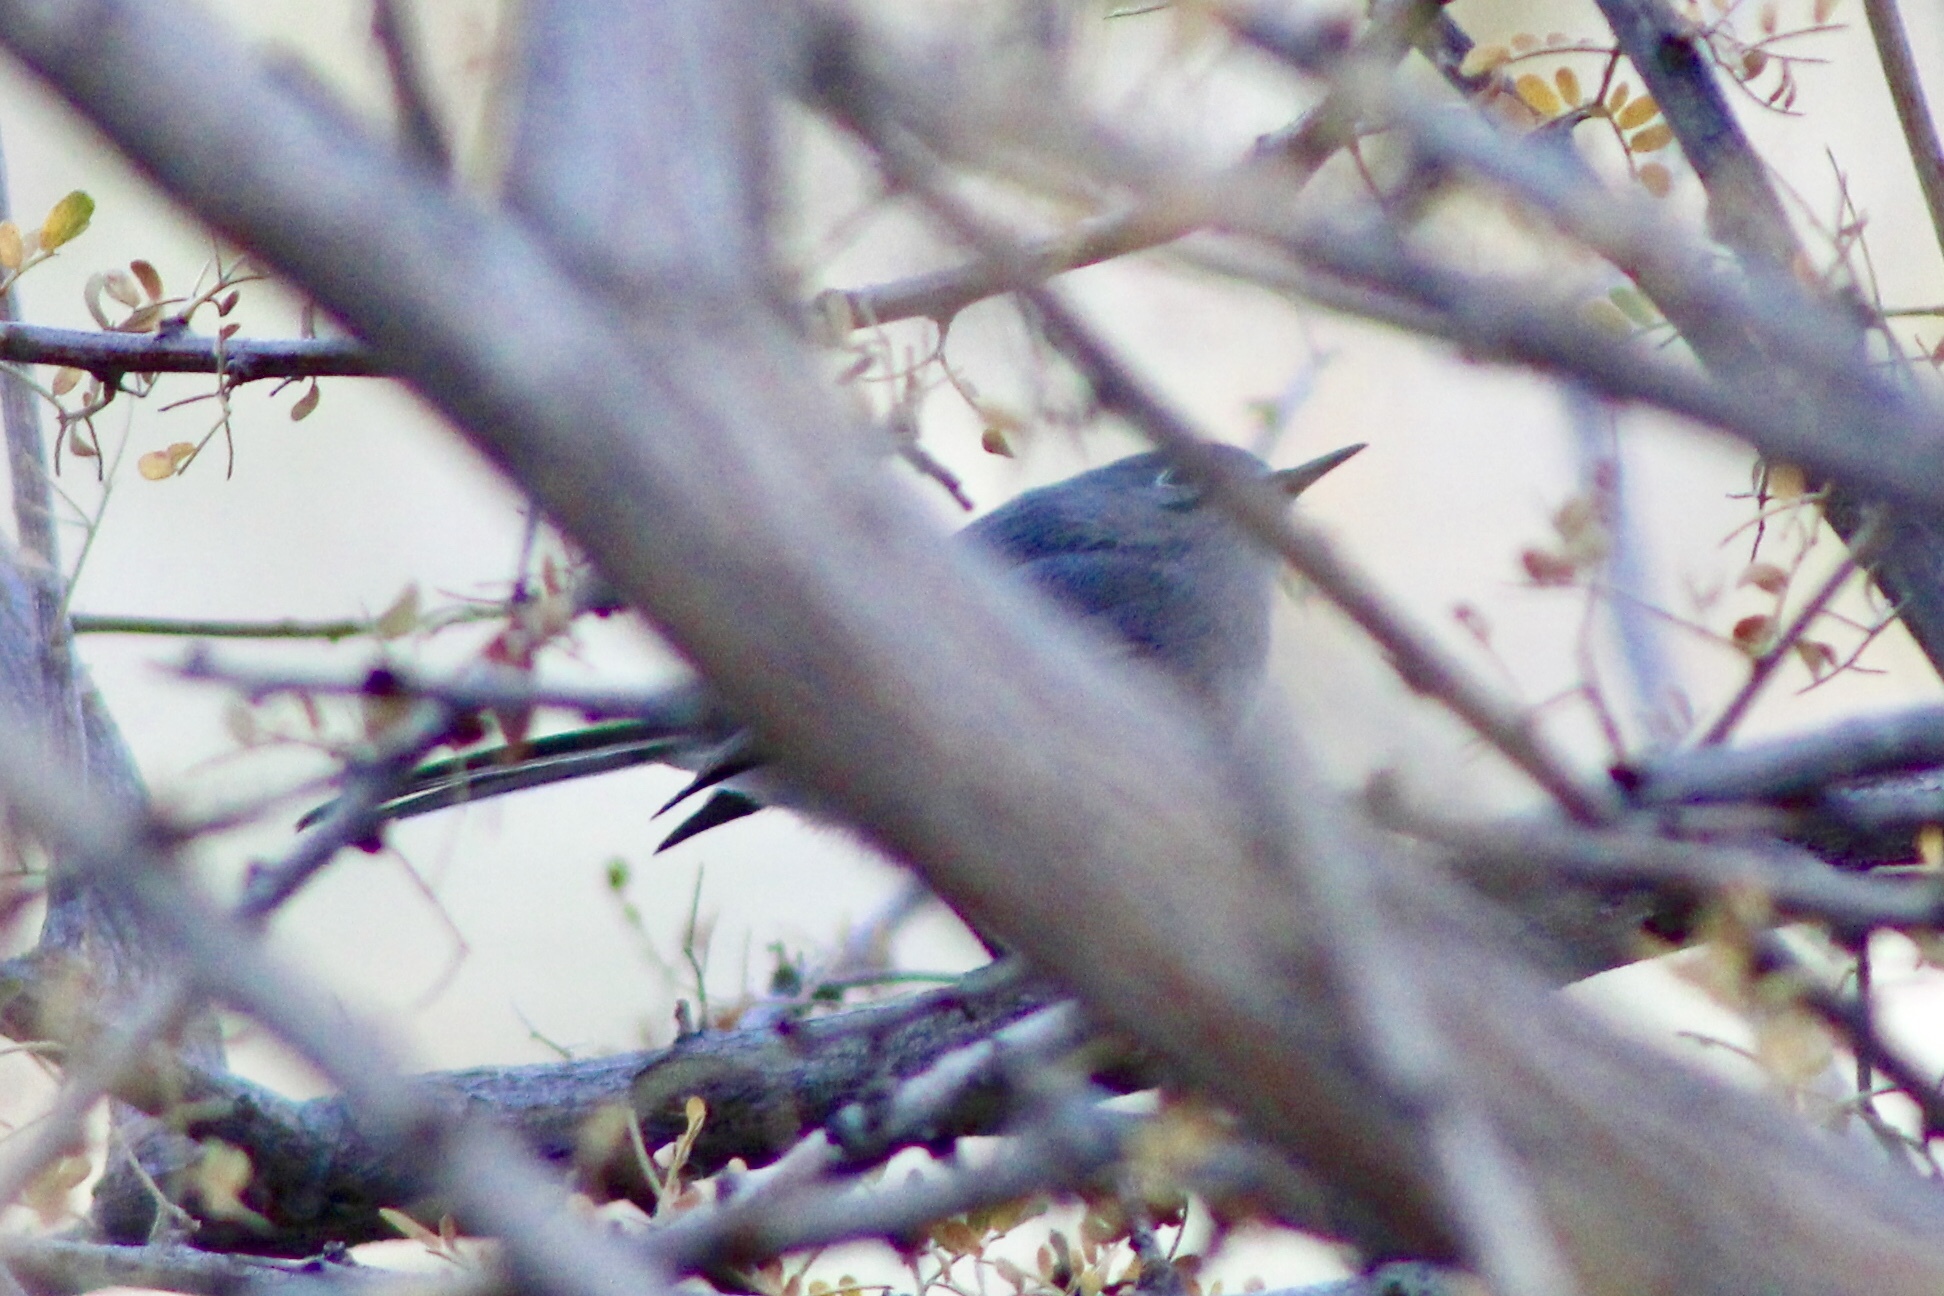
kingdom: Animalia
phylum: Chordata
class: Aves
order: Passeriformes
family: Polioptilidae
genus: Polioptila
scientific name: Polioptila caerulea
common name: Blue-gray gnatcatcher
